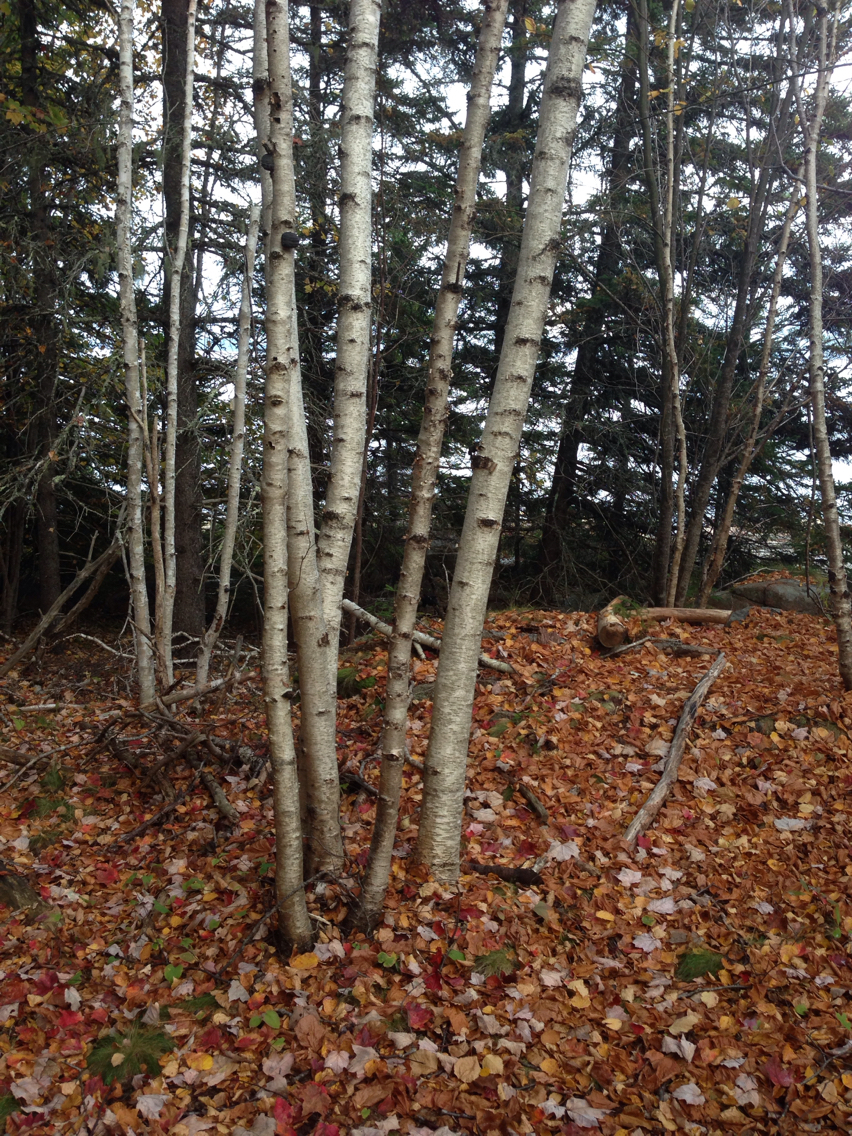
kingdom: Plantae
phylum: Tracheophyta
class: Magnoliopsida
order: Fagales
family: Betulaceae
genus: Betula
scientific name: Betula populifolia
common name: Fire birch
